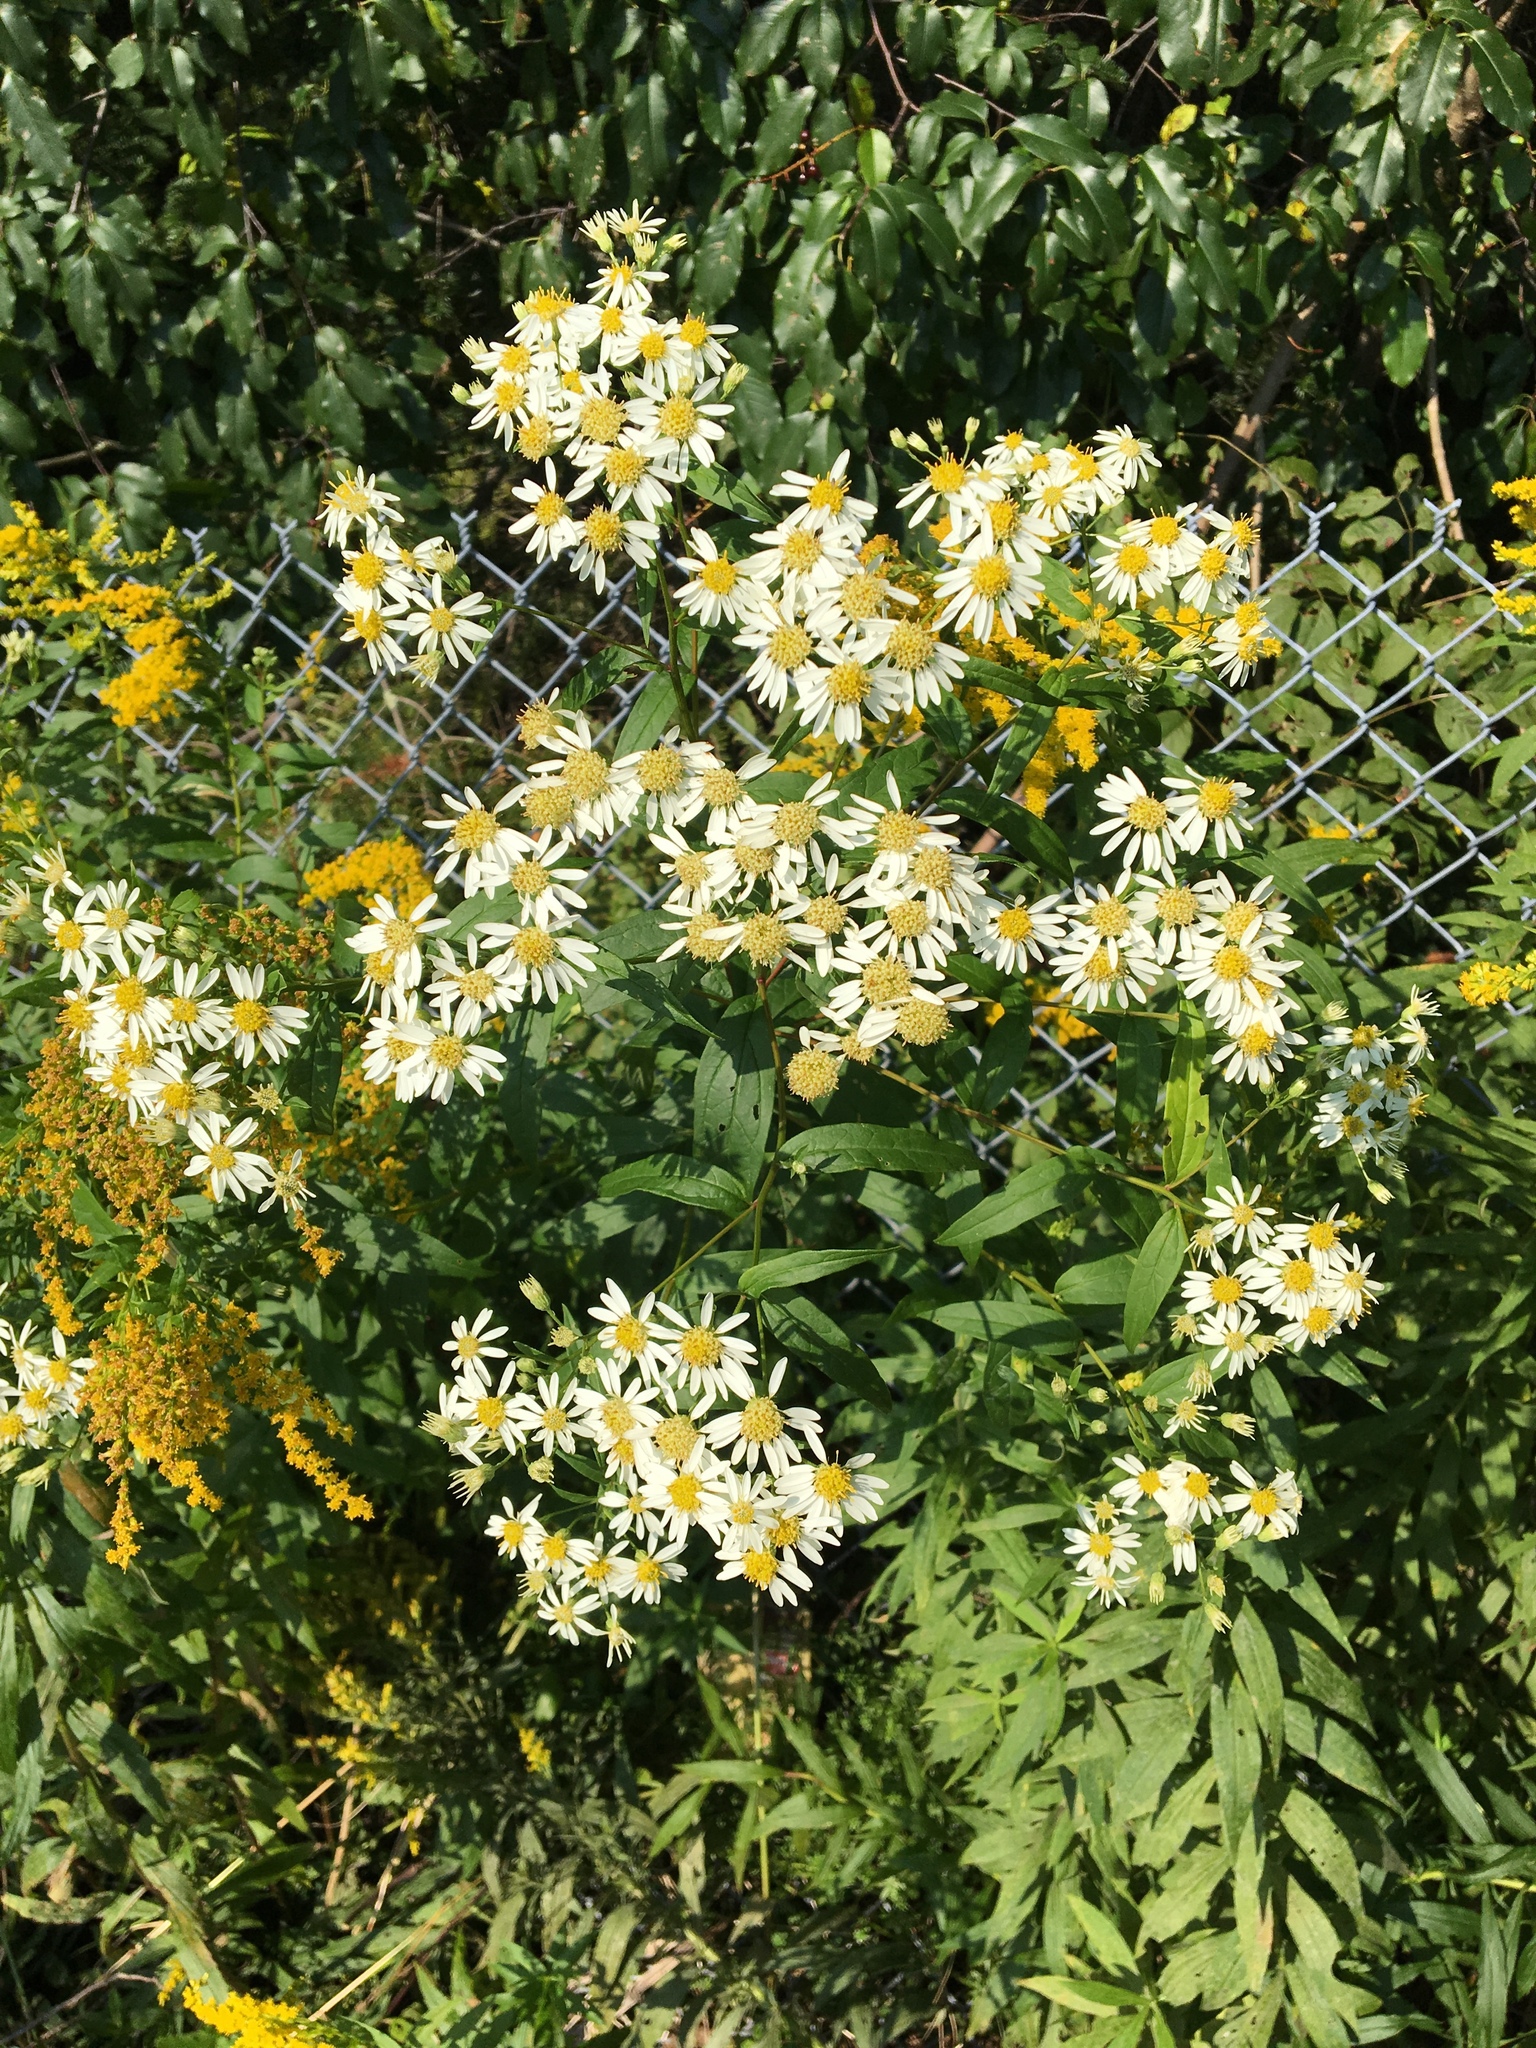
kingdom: Plantae
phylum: Tracheophyta
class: Magnoliopsida
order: Asterales
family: Asteraceae
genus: Doellingeria
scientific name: Doellingeria umbellata
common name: Flat-top white aster
